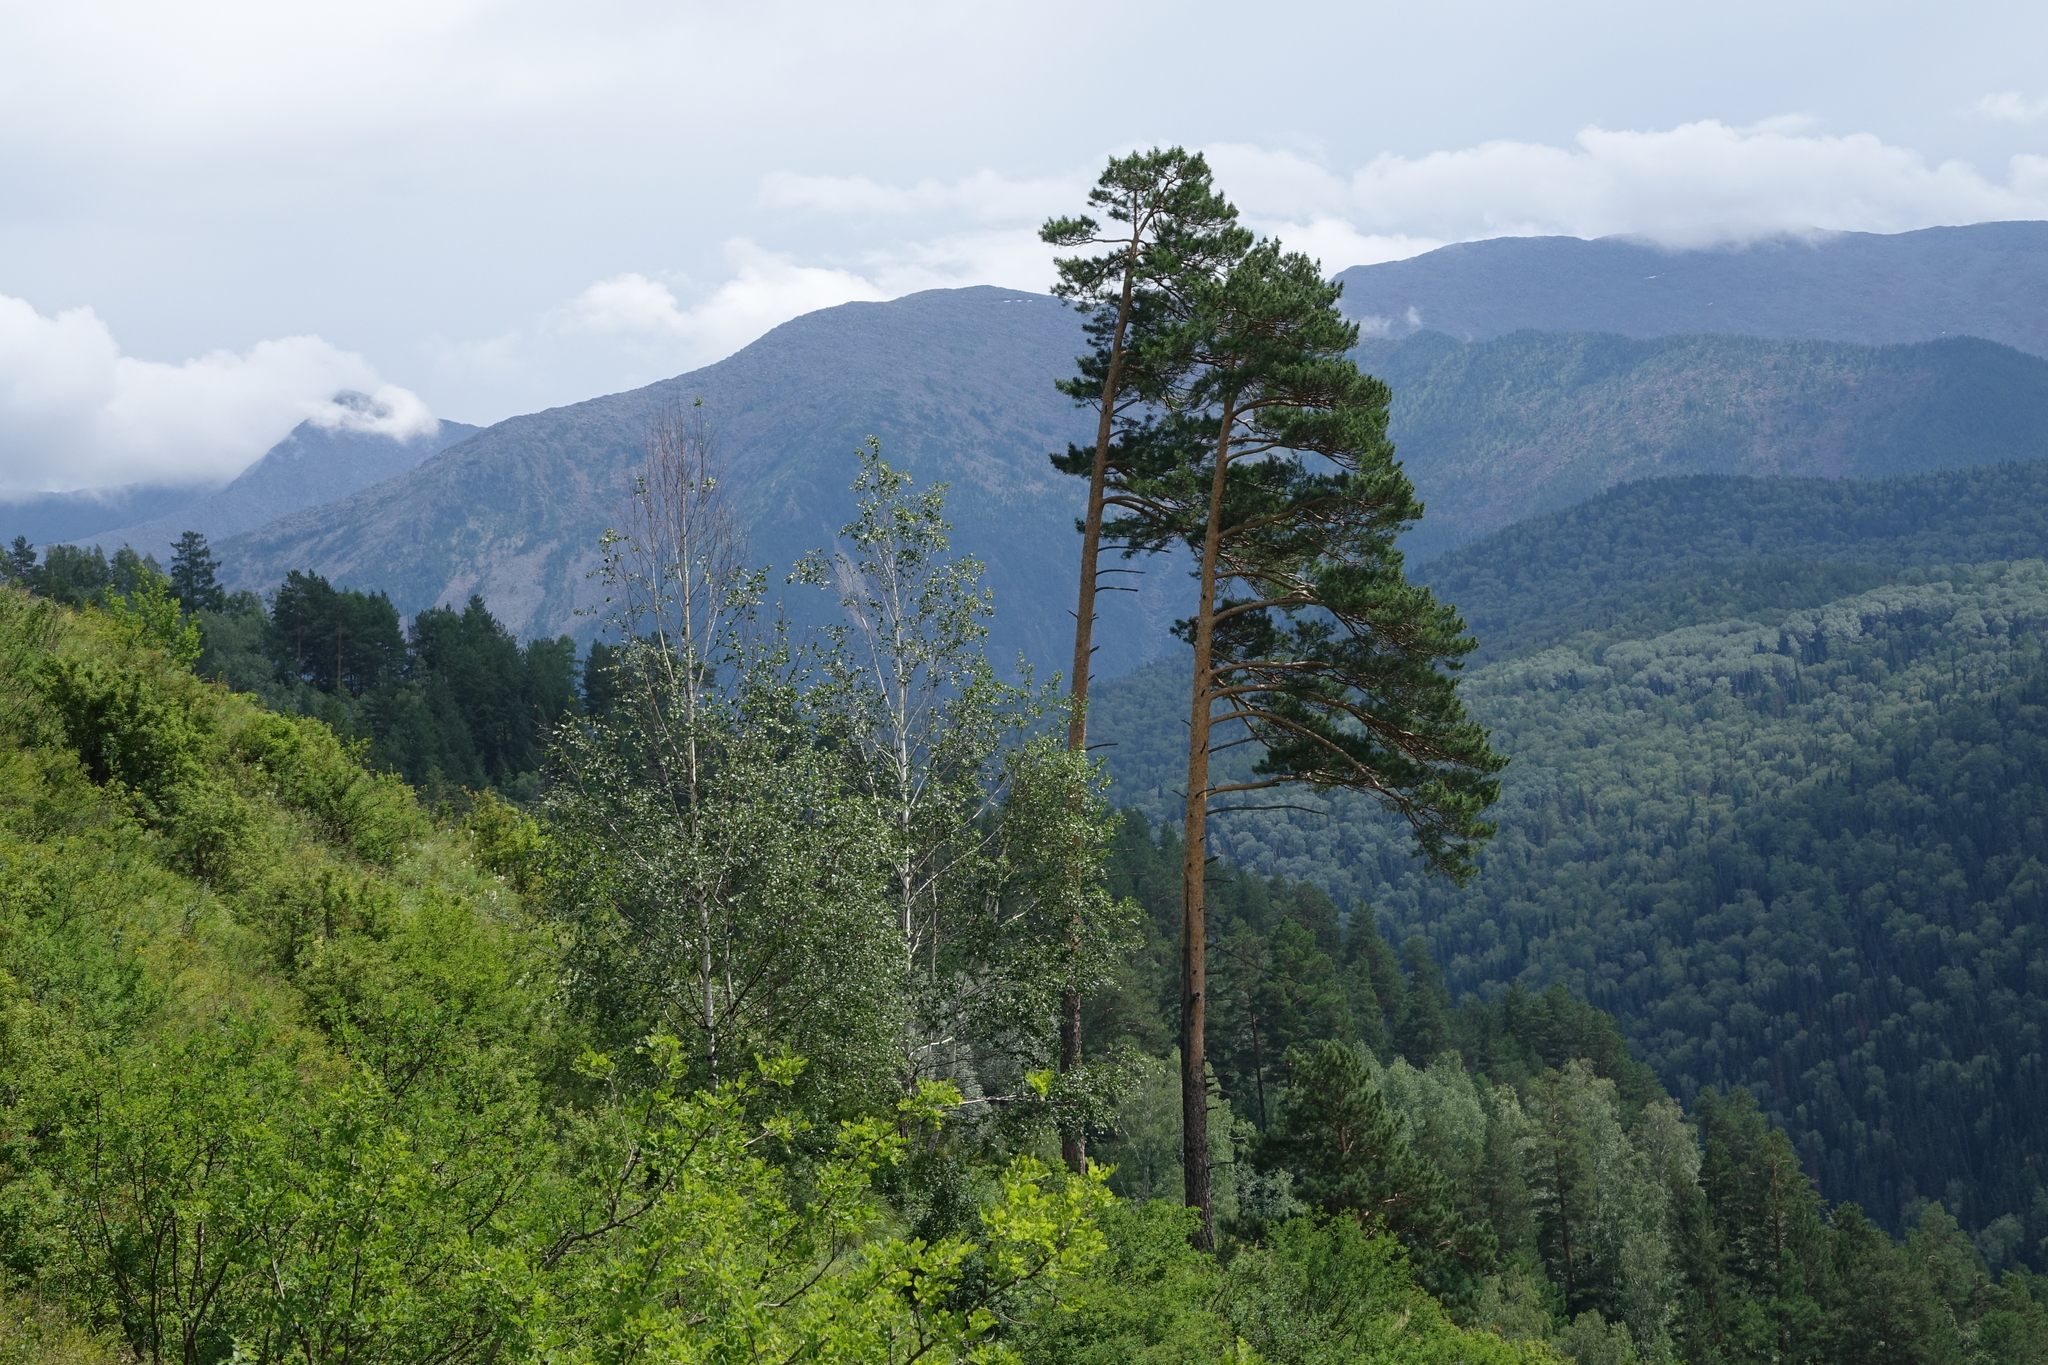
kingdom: Plantae
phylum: Tracheophyta
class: Pinopsida
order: Pinales
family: Pinaceae
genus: Pinus
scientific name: Pinus sylvestris
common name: Scots pine
